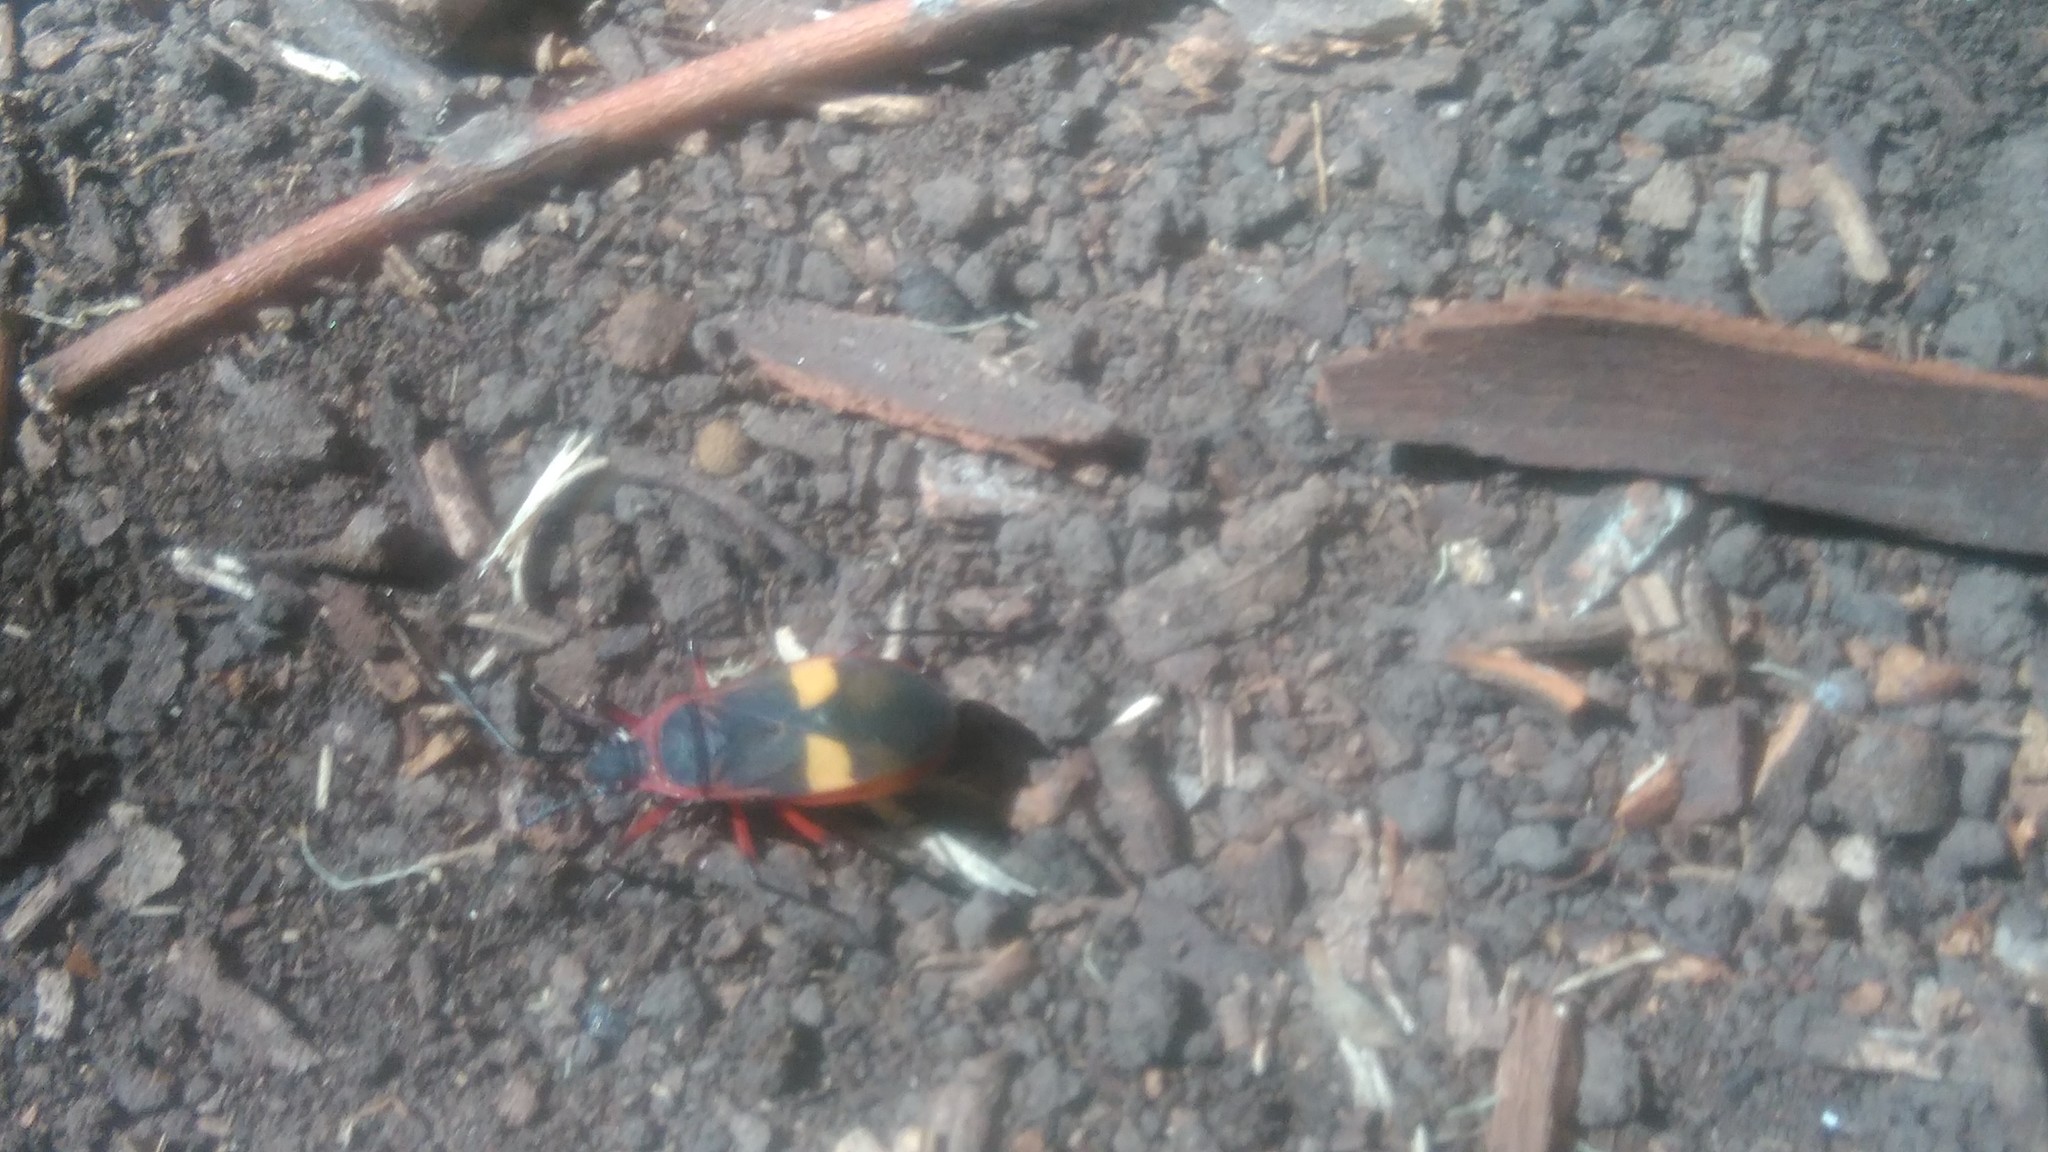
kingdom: Animalia
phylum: Arthropoda
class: Insecta
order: Hemiptera
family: Pyrrhocoridae
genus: Dysdercus
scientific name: Dysdercus albofasciatus
